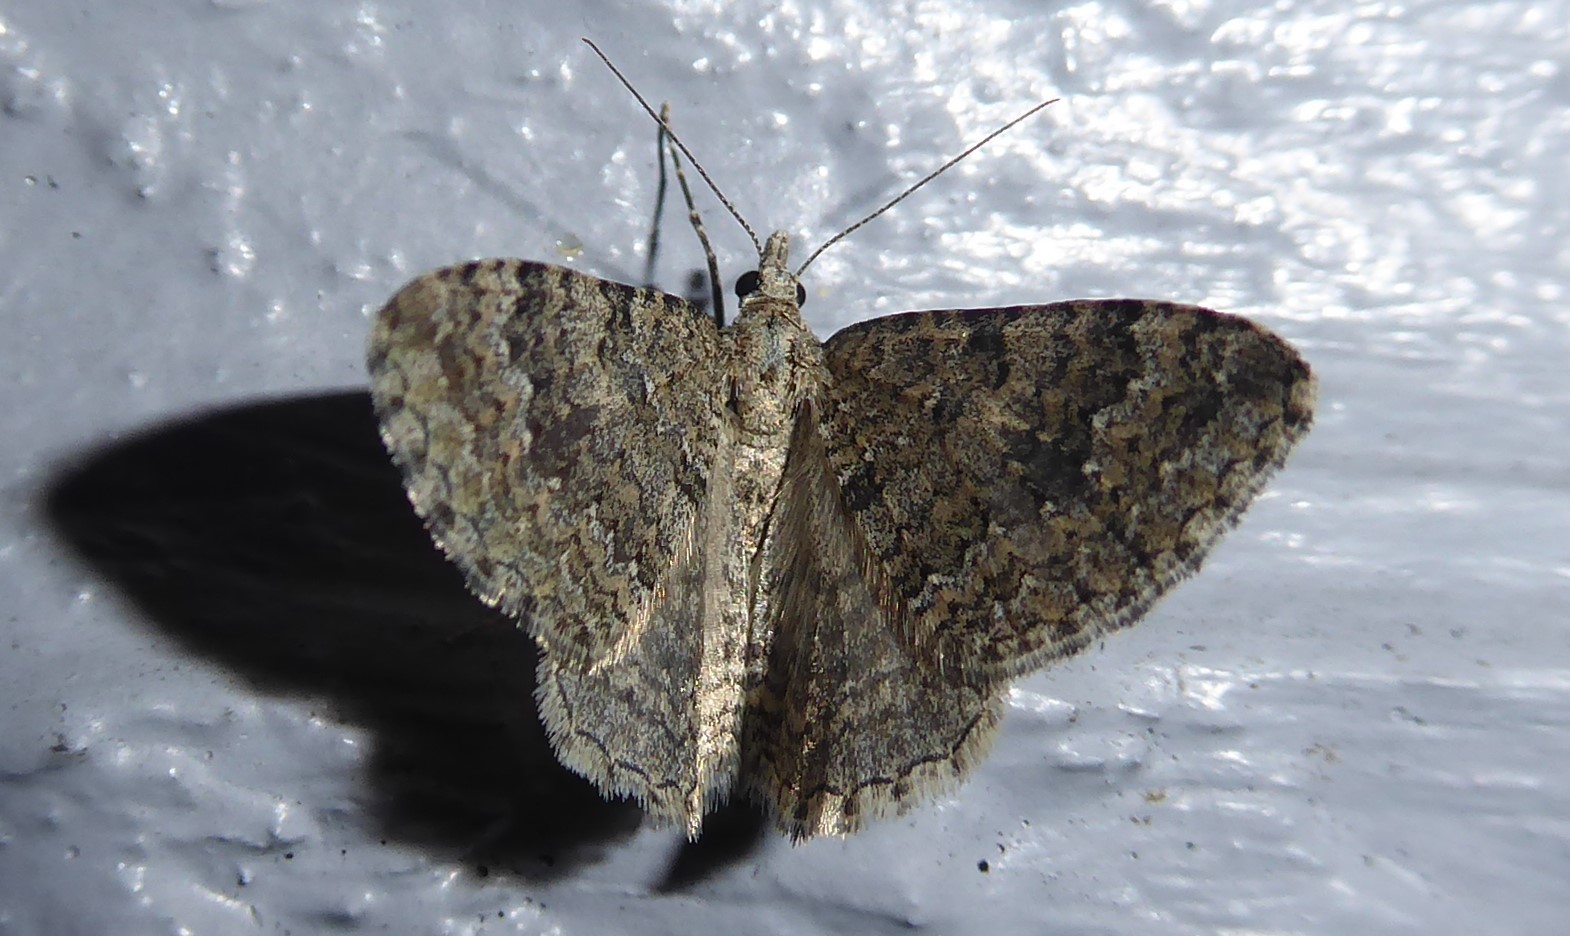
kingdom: Animalia
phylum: Arthropoda
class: Insecta
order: Lepidoptera
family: Geometridae
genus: Helastia
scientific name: Helastia corcularia
